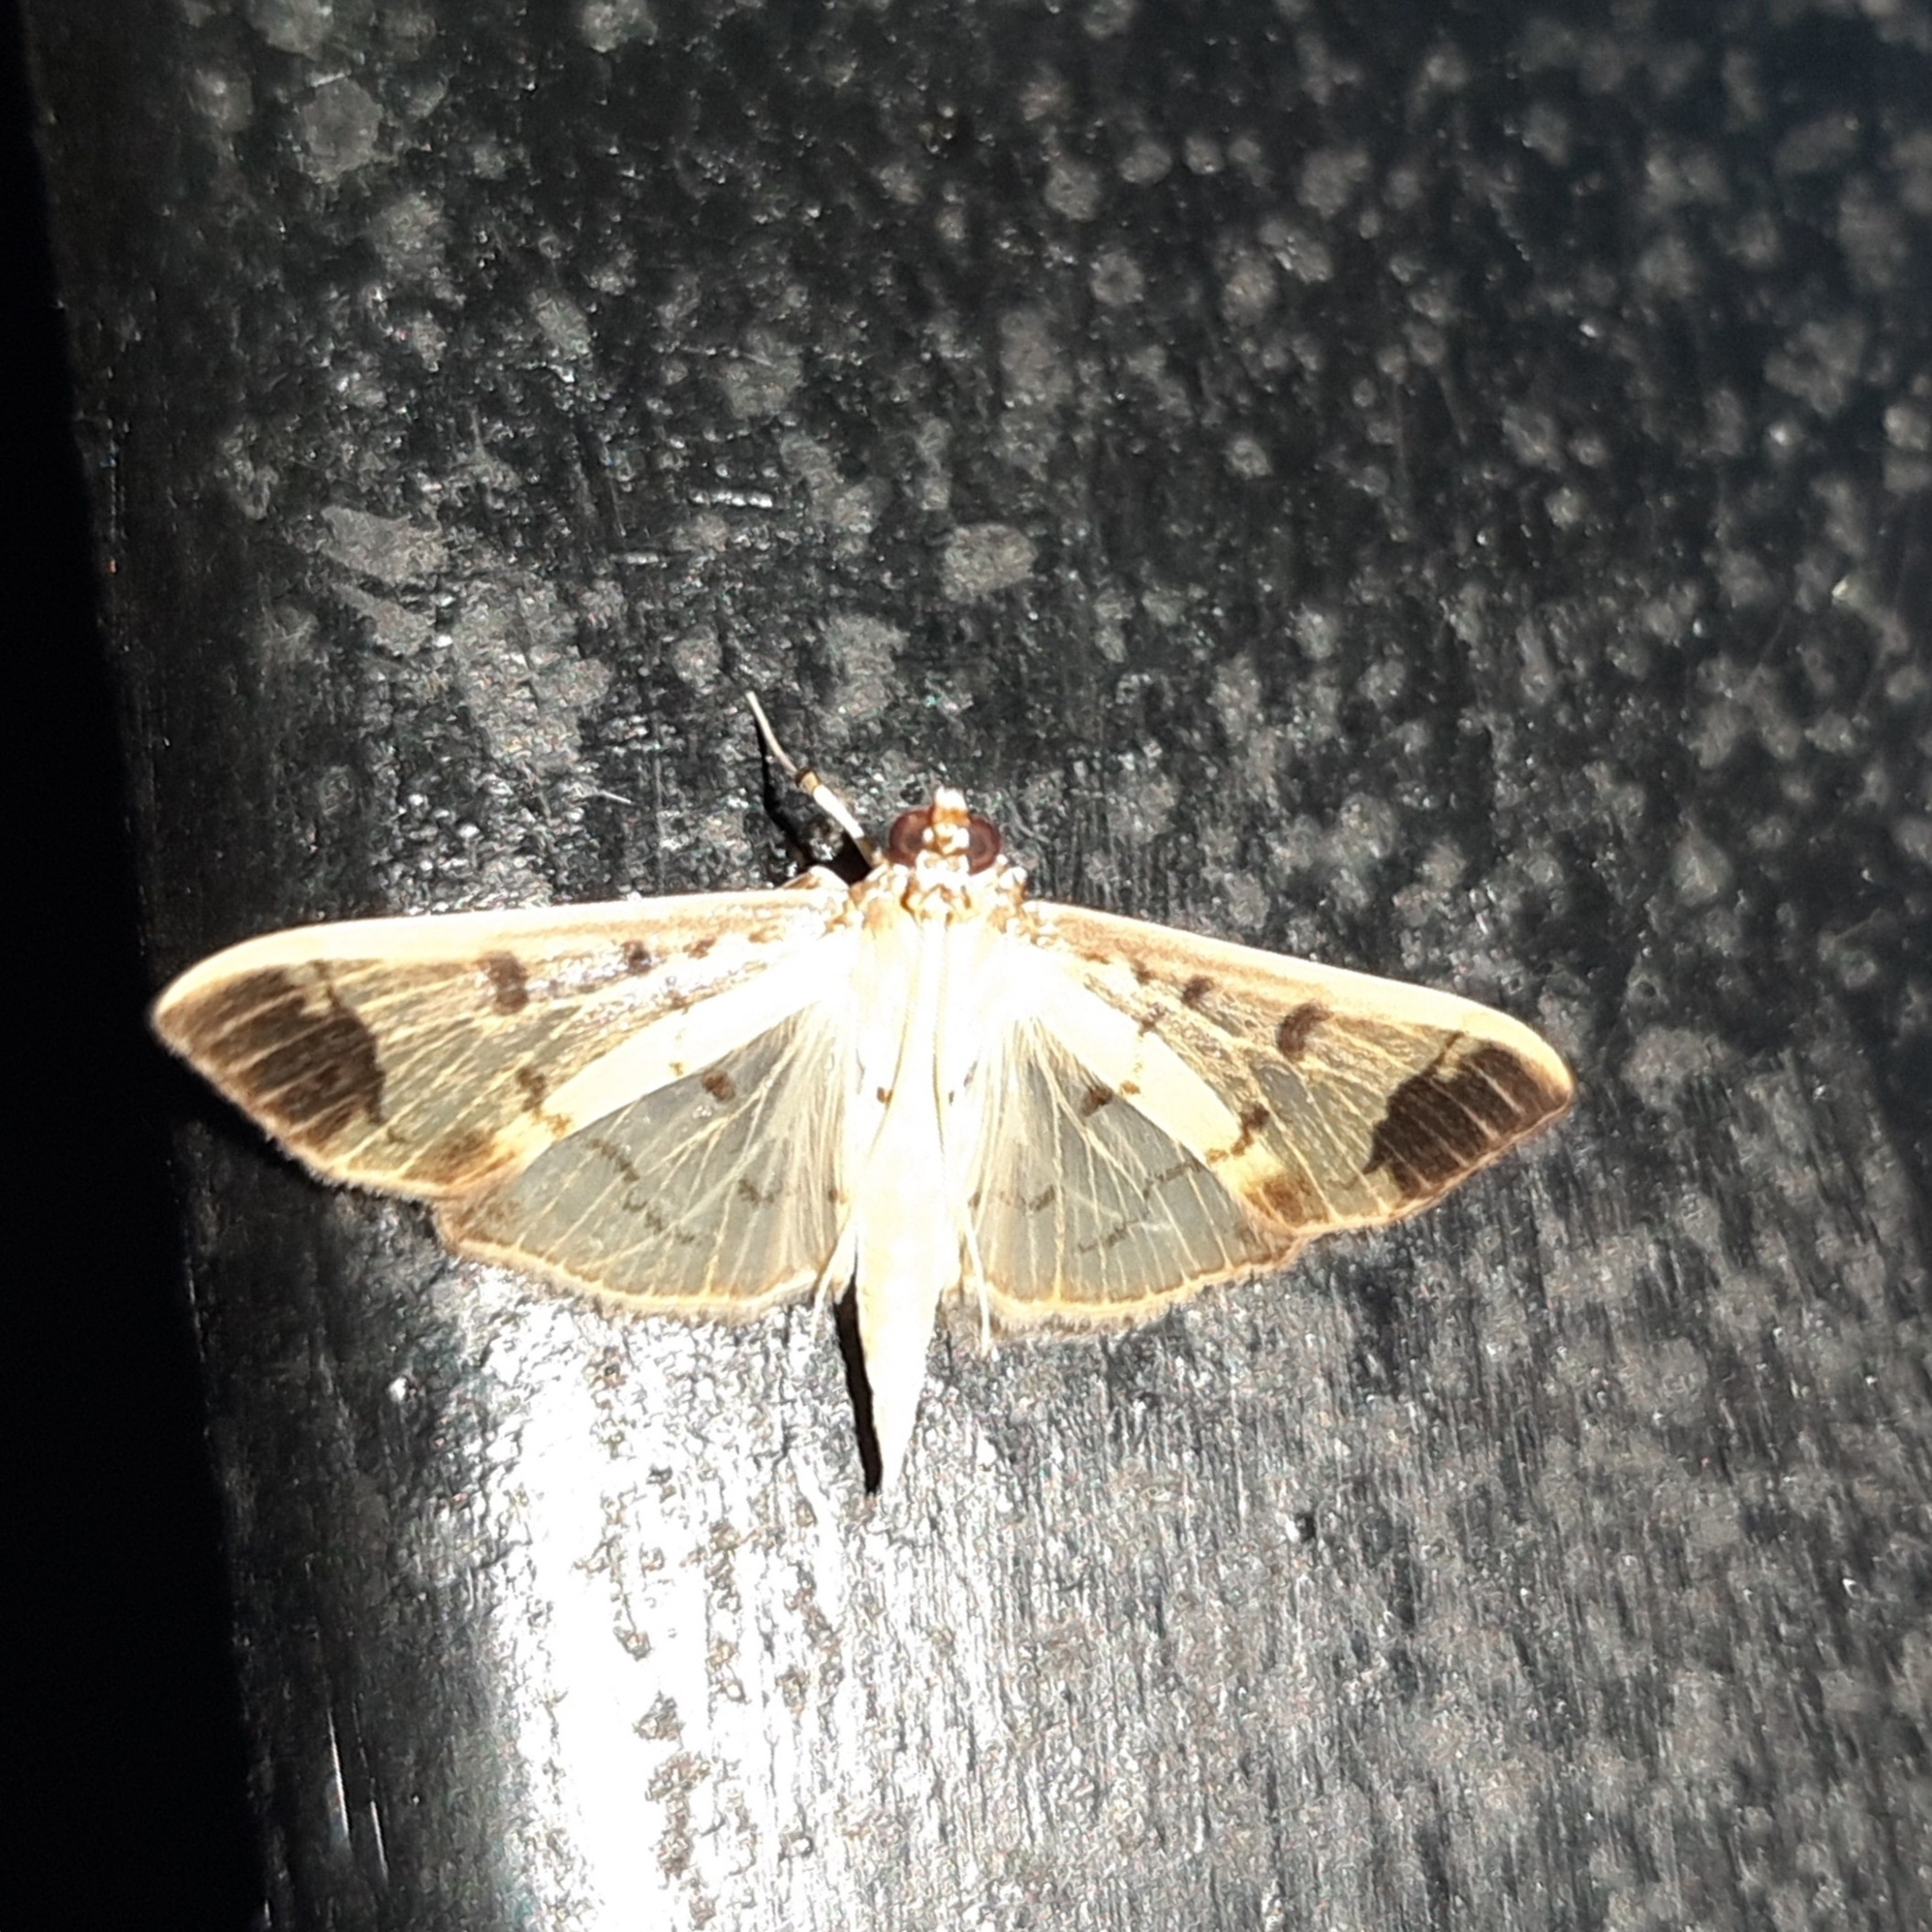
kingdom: Animalia
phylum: Arthropoda
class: Insecta
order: Lepidoptera
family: Crambidae
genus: Eulepte
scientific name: Eulepte concordalis
